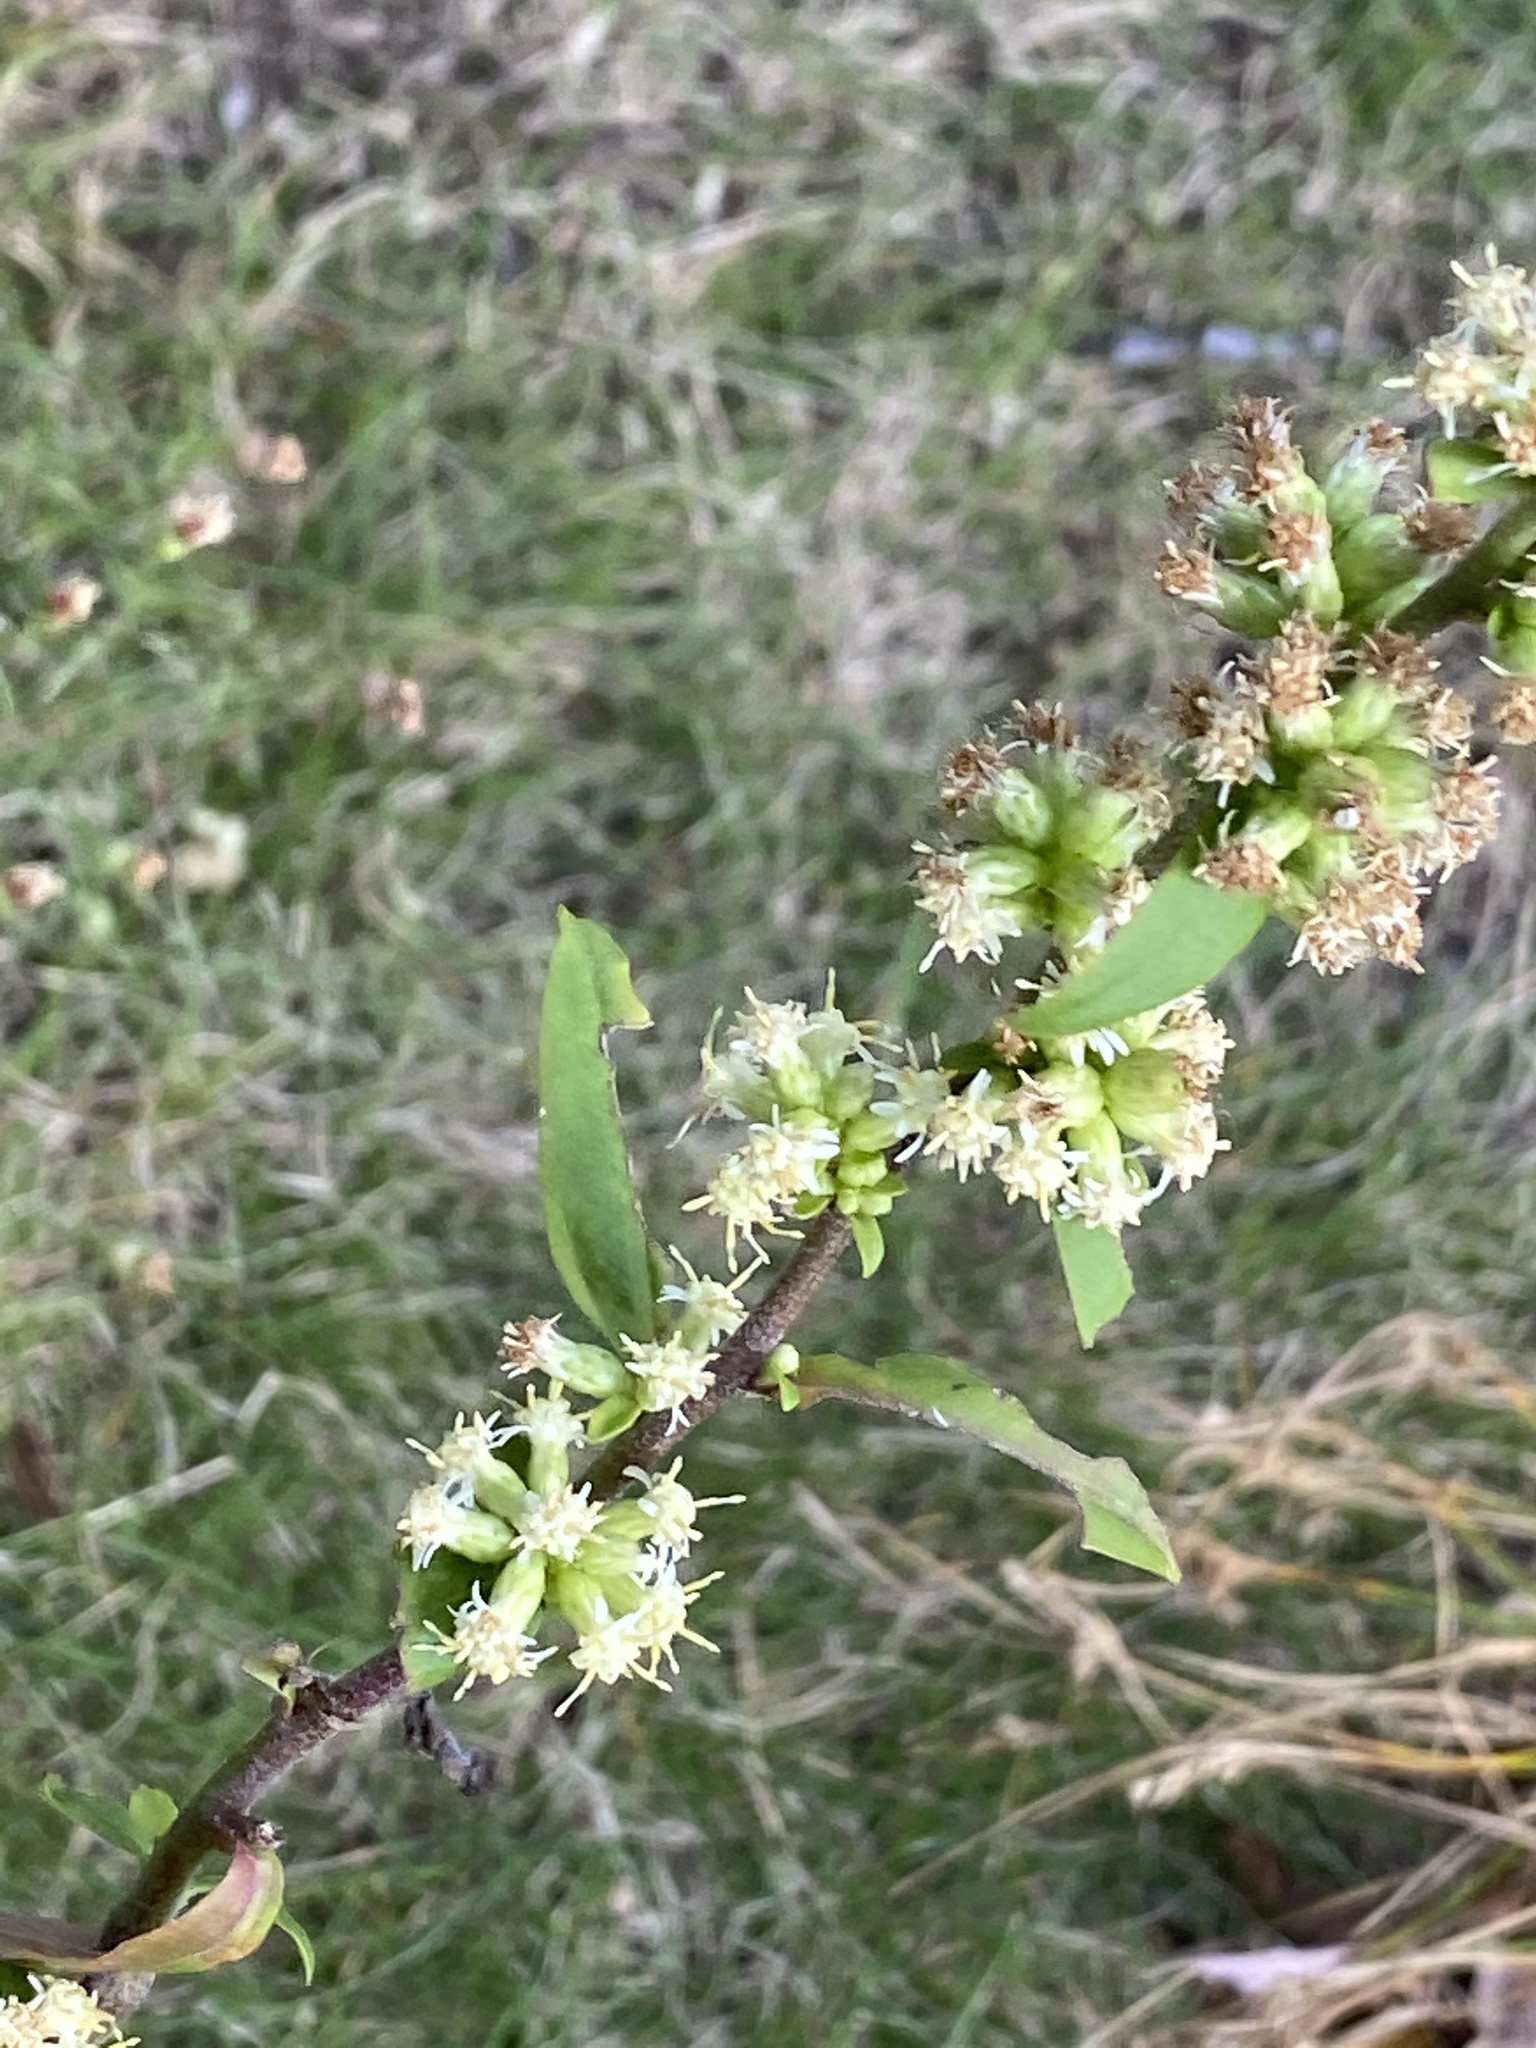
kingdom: Plantae
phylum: Tracheophyta
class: Magnoliopsida
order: Asterales
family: Asteraceae
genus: Solidago
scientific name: Solidago bicolor
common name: Silverrod
